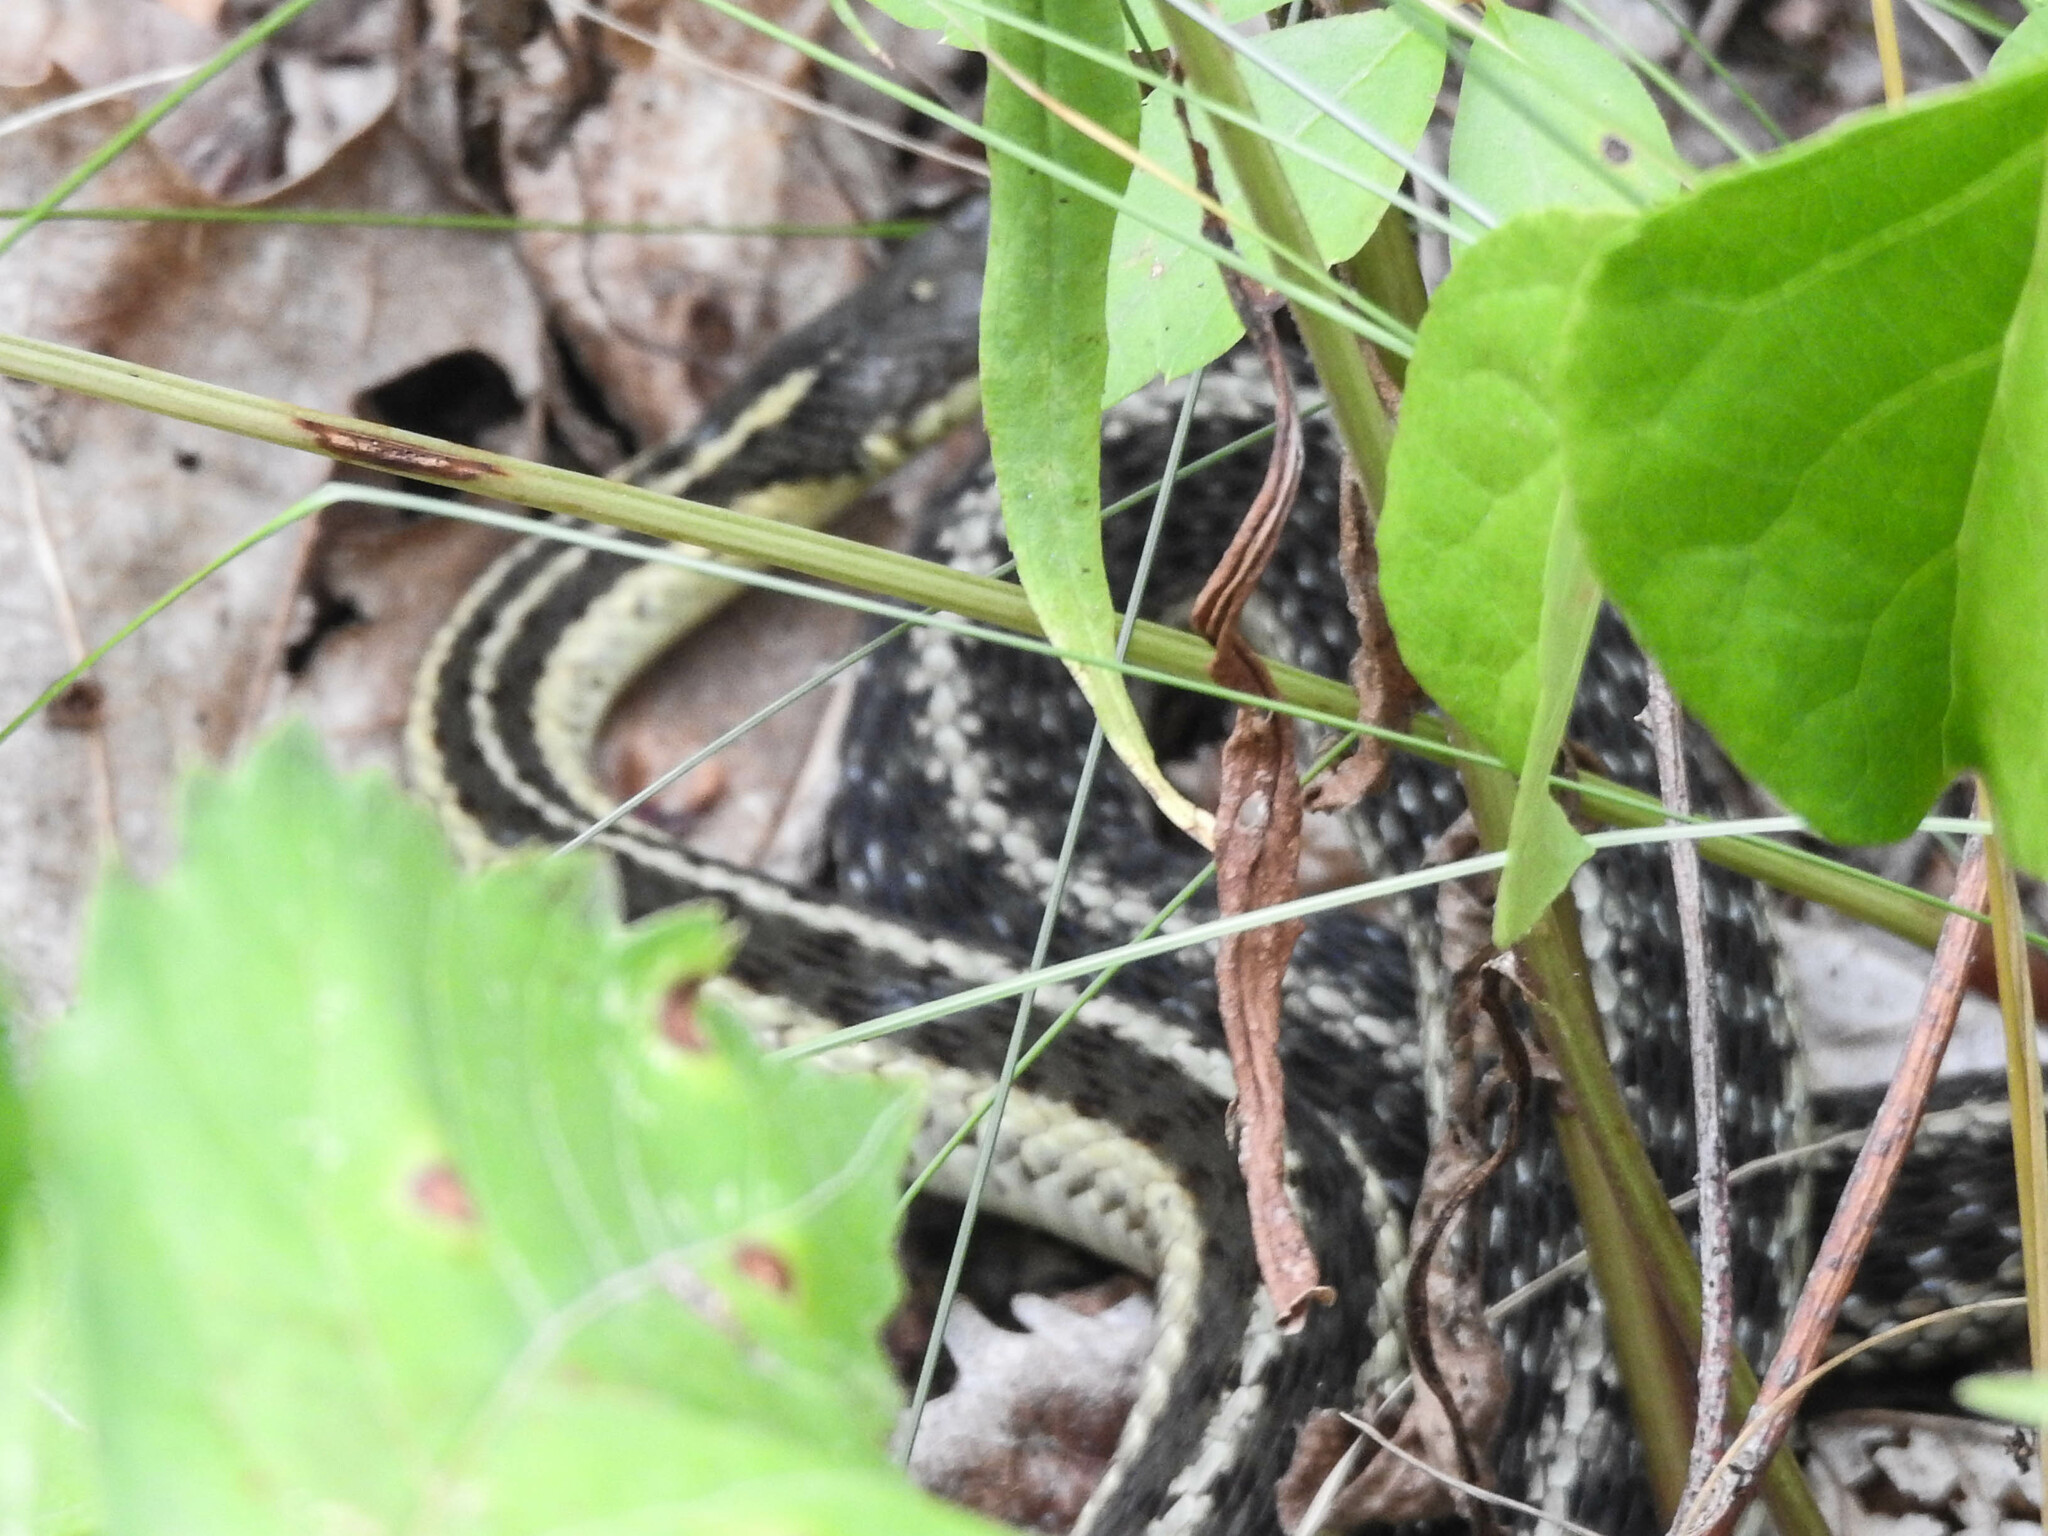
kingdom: Animalia
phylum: Chordata
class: Squamata
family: Colubridae
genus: Thamnophis
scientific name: Thamnophis sirtalis
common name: Common garter snake
